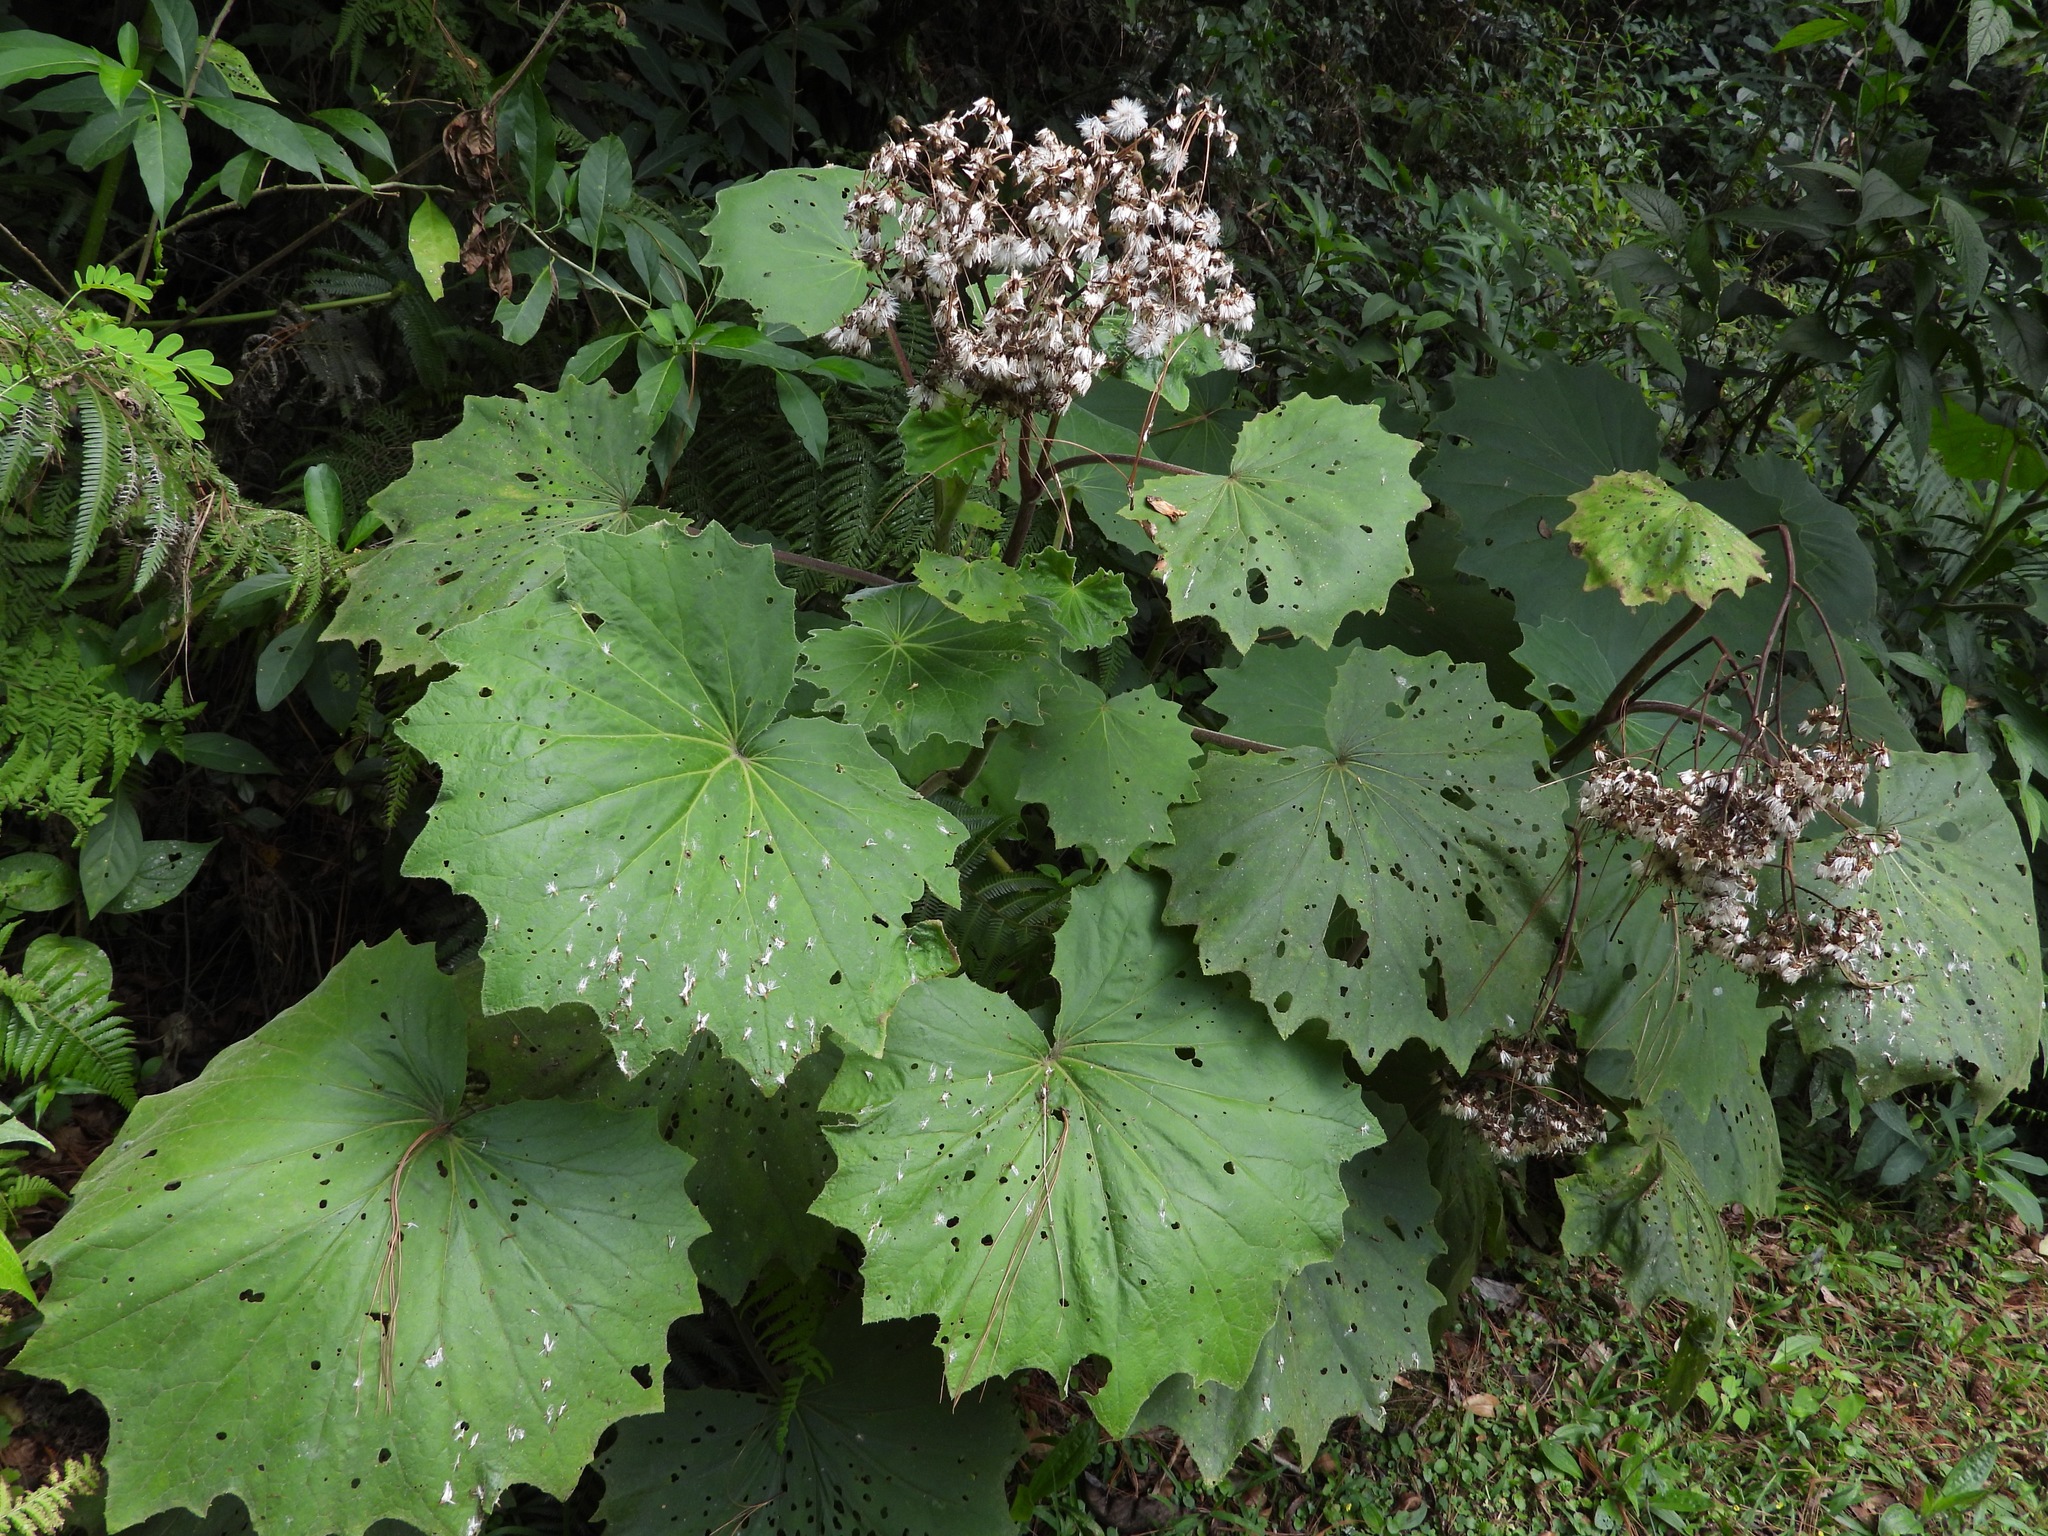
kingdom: Plantae
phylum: Tracheophyta
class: Magnoliopsida
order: Asterales
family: Asteraceae
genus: Roldana
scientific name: Roldana gilgii
